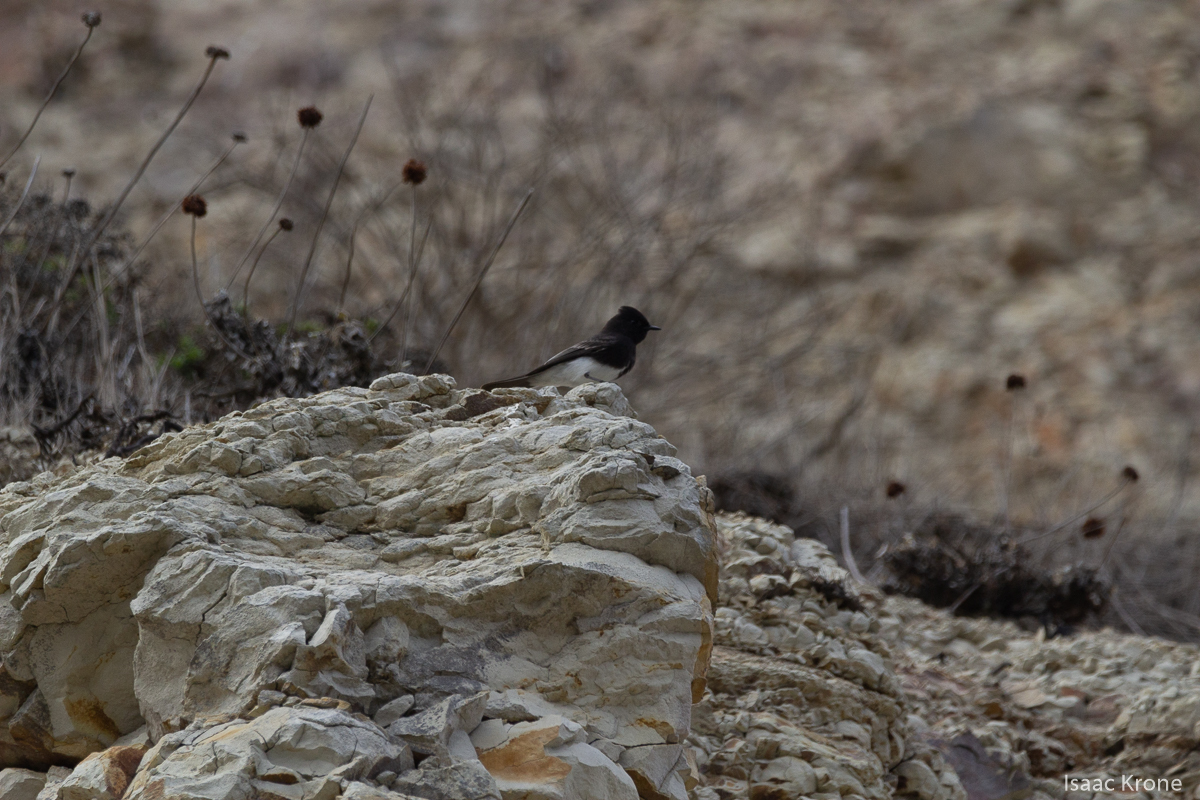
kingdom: Animalia
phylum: Chordata
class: Aves
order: Passeriformes
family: Tyrannidae
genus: Sayornis
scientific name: Sayornis nigricans
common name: Black phoebe
